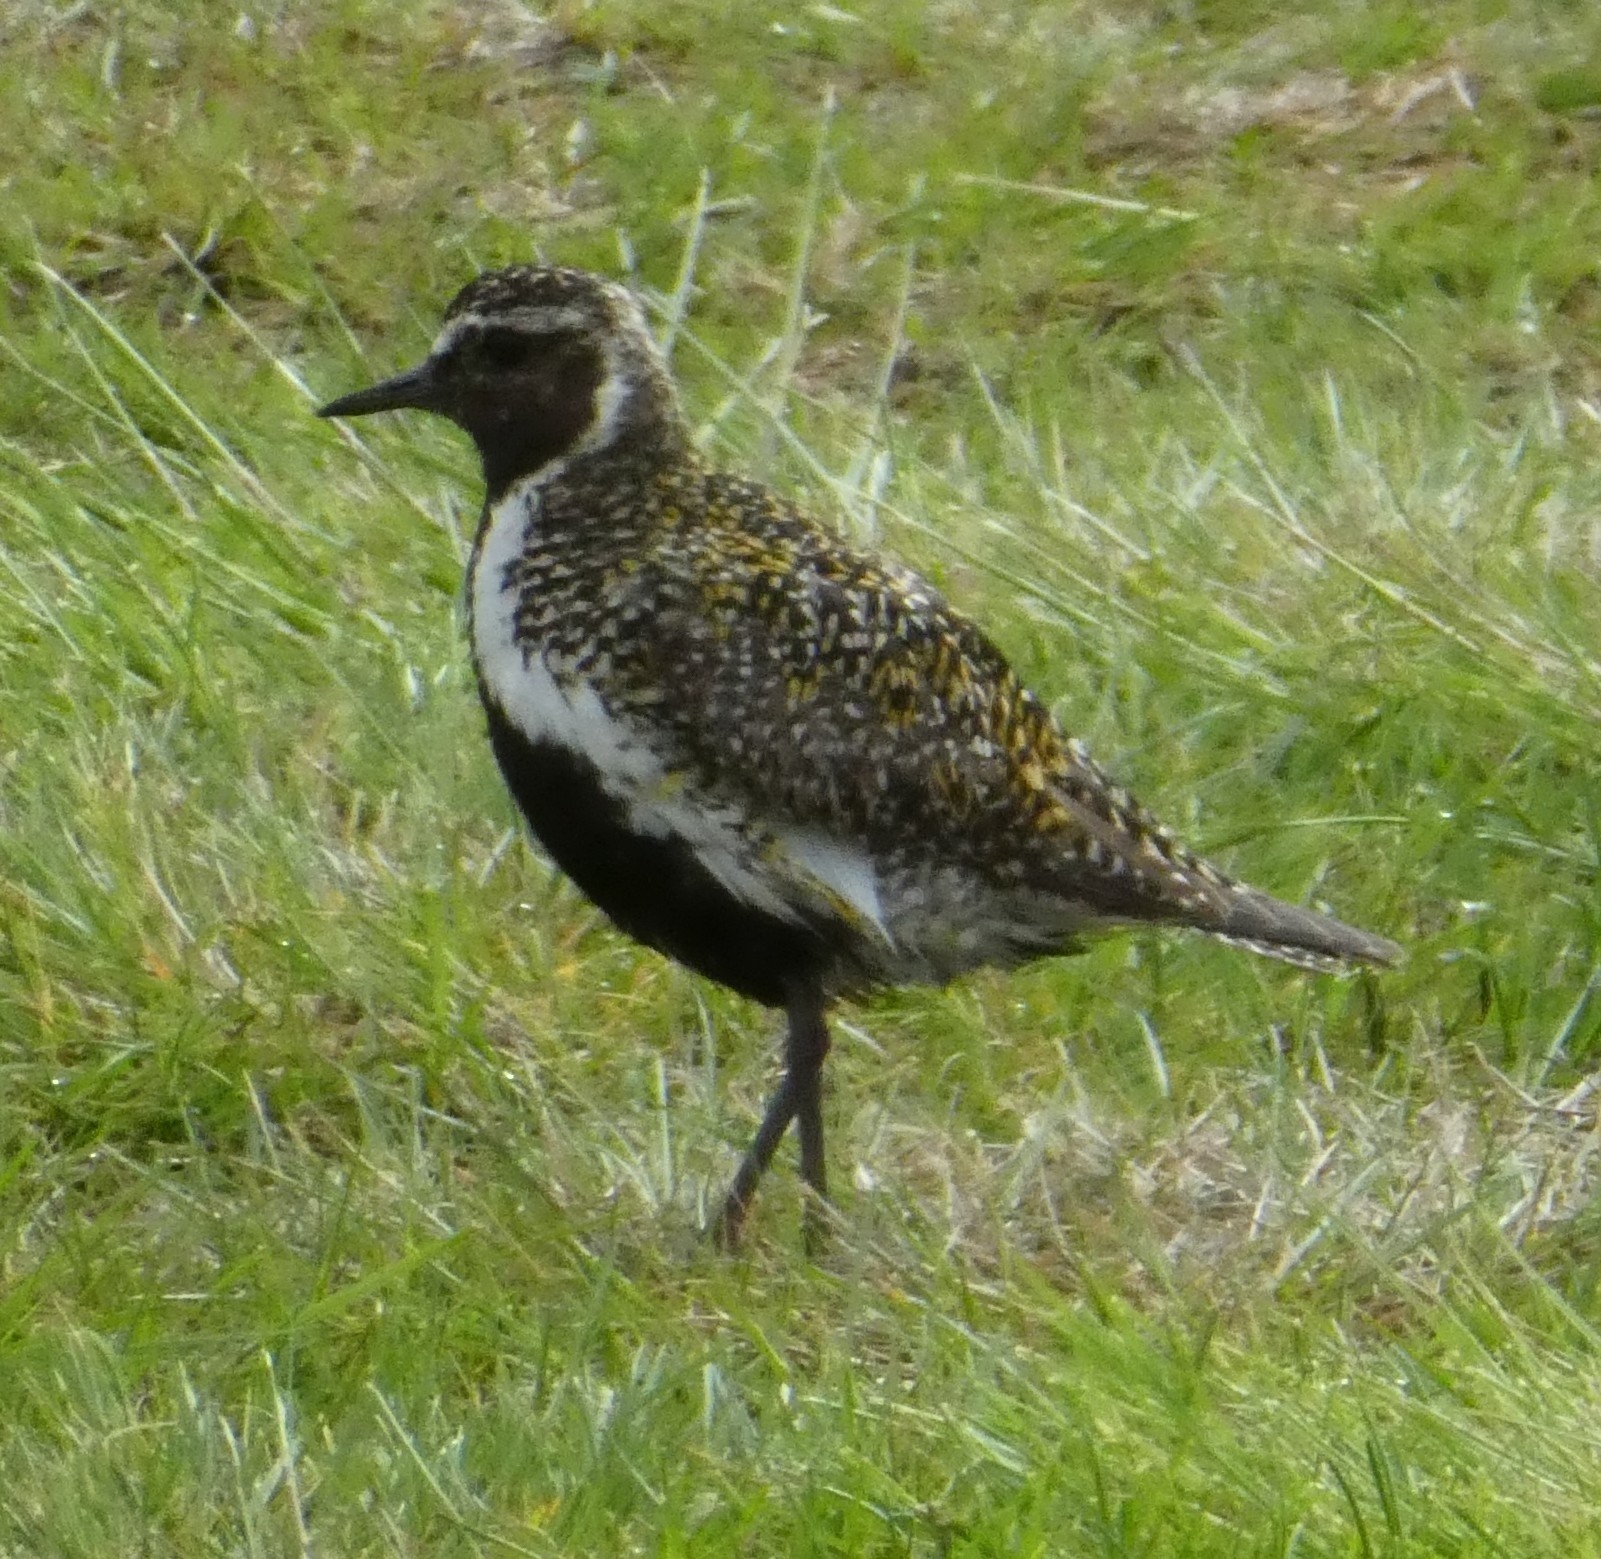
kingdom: Animalia
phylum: Chordata
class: Aves
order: Charadriiformes
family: Charadriidae
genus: Pluvialis
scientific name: Pluvialis apricaria
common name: European golden plover
